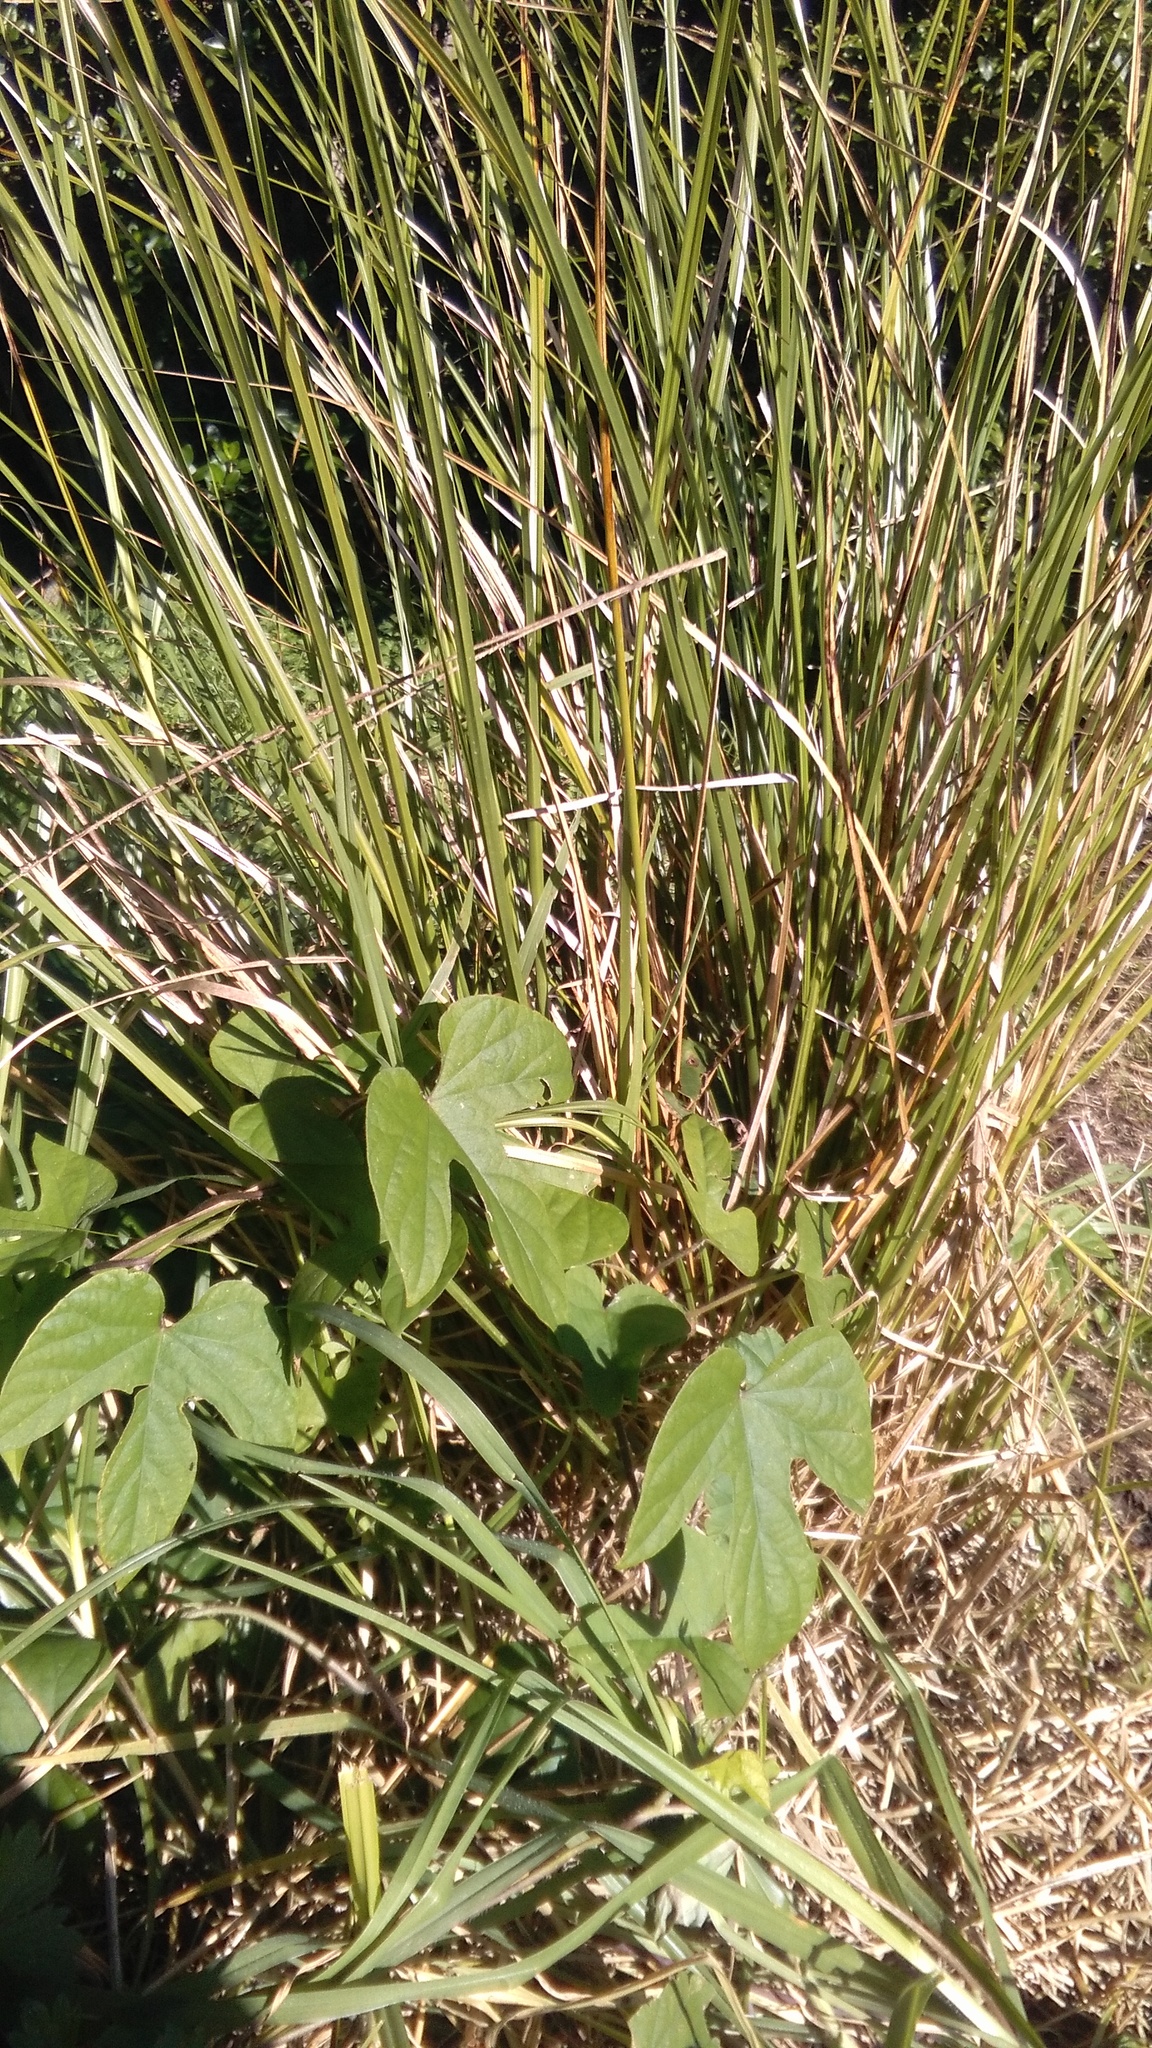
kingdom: Plantae
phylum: Tracheophyta
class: Magnoliopsida
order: Solanales
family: Convolvulaceae
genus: Ipomoea
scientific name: Ipomoea indica
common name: Blue dawnflower
